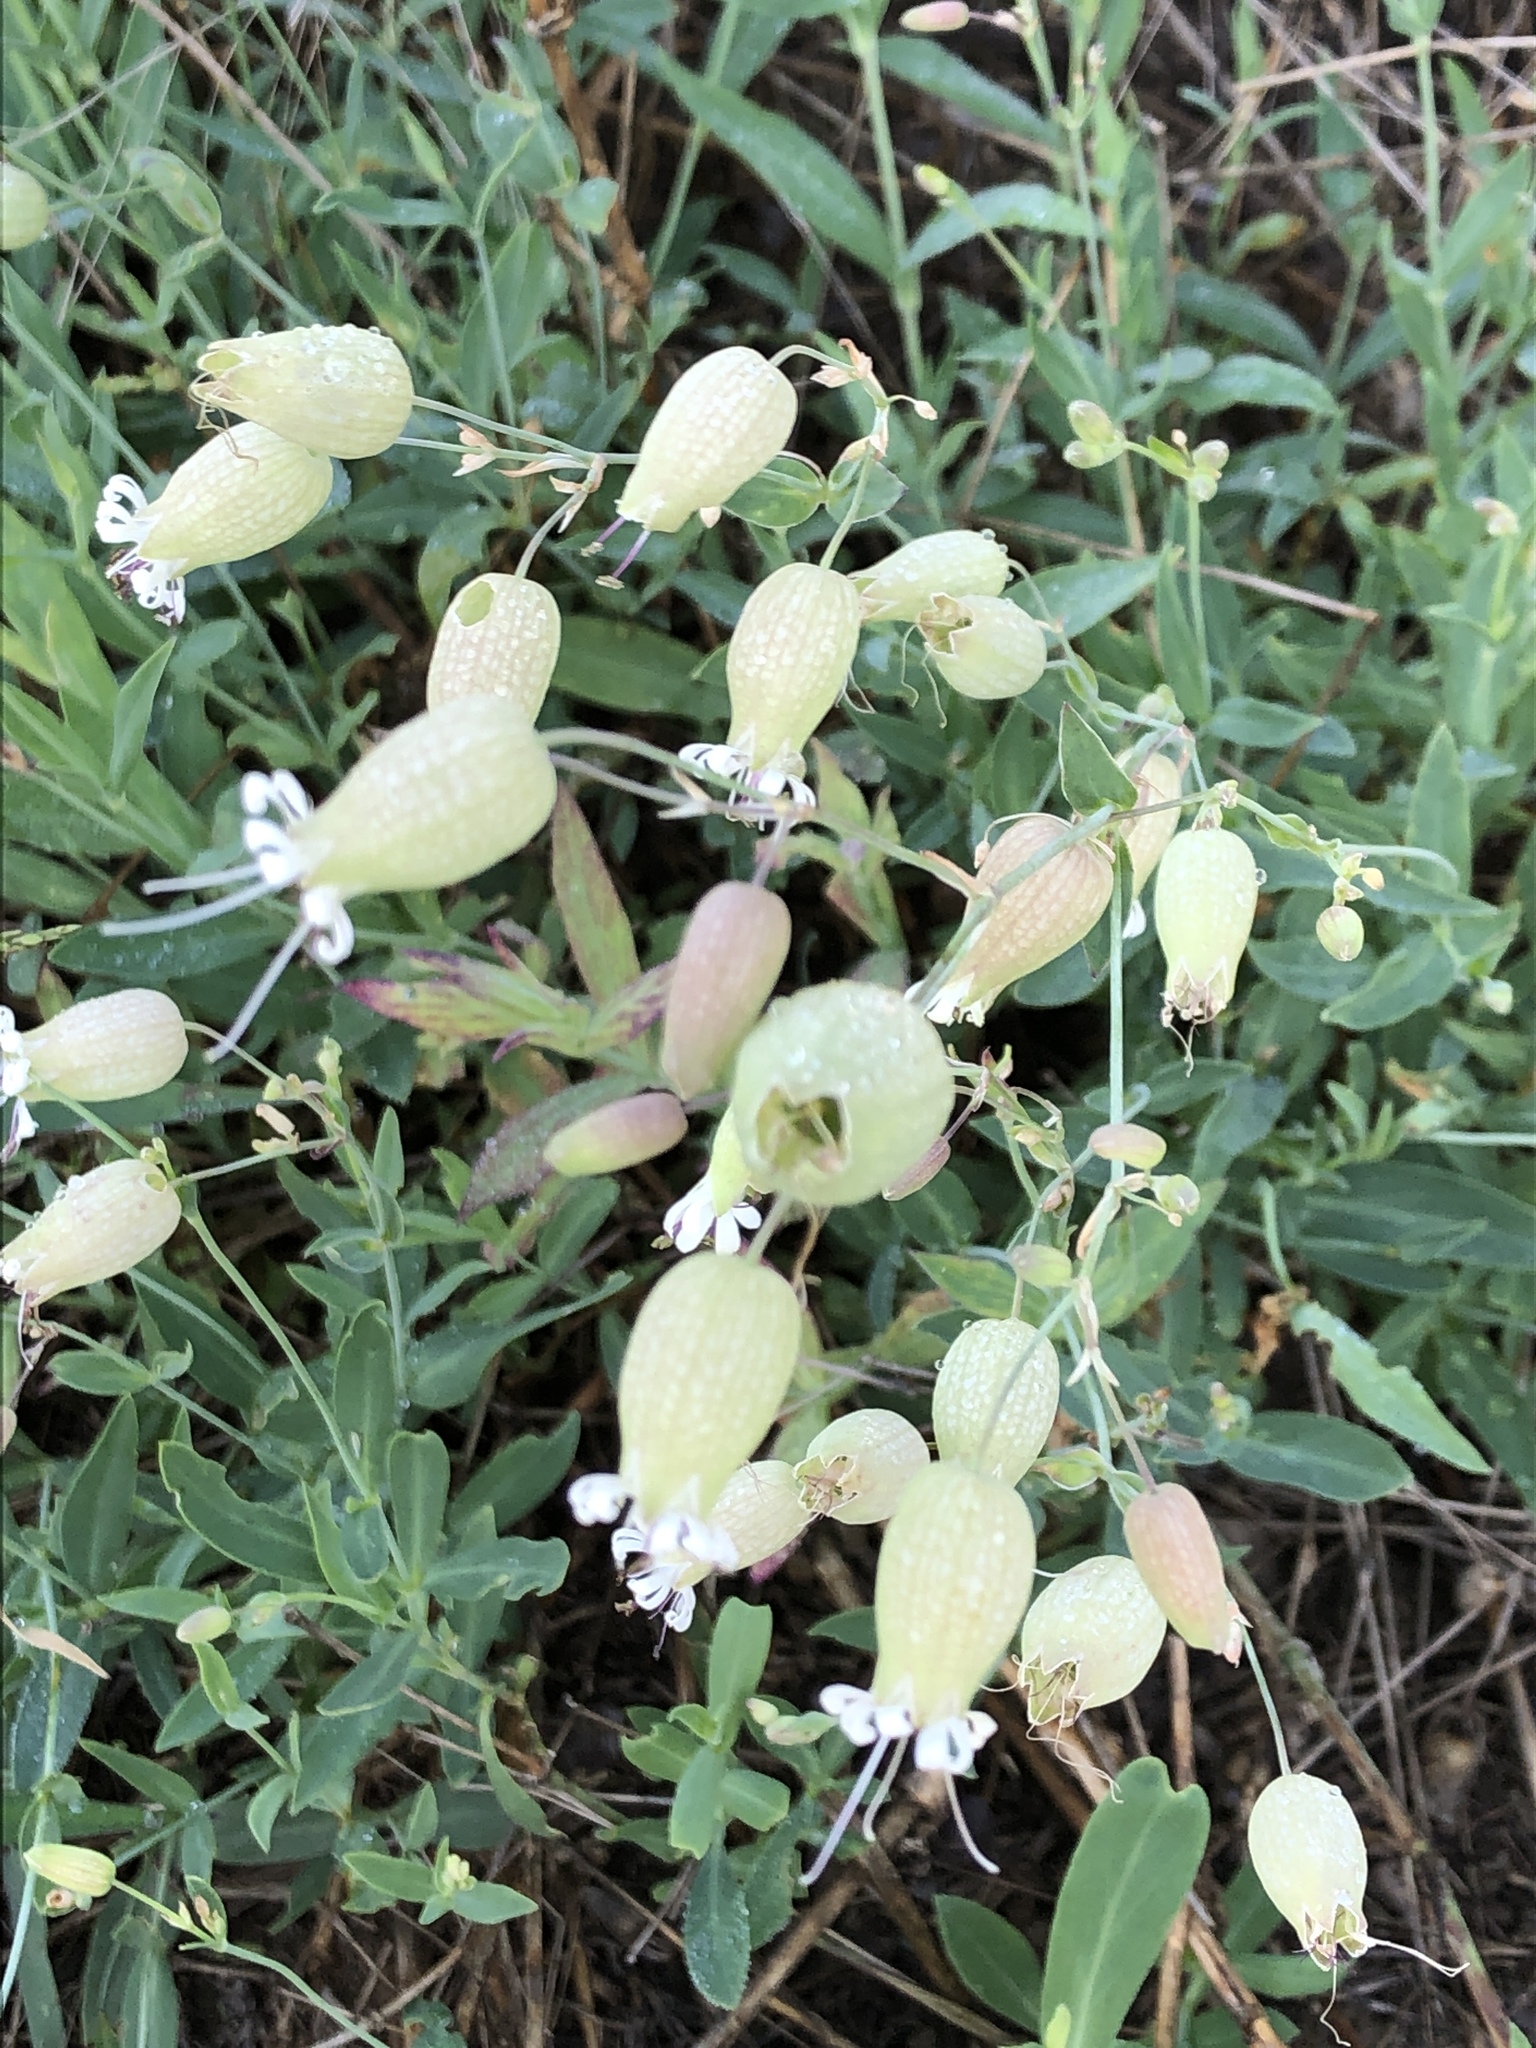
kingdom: Plantae
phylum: Tracheophyta
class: Magnoliopsida
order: Caryophyllales
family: Caryophyllaceae
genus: Silene
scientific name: Silene vulgaris
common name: Bladder campion
